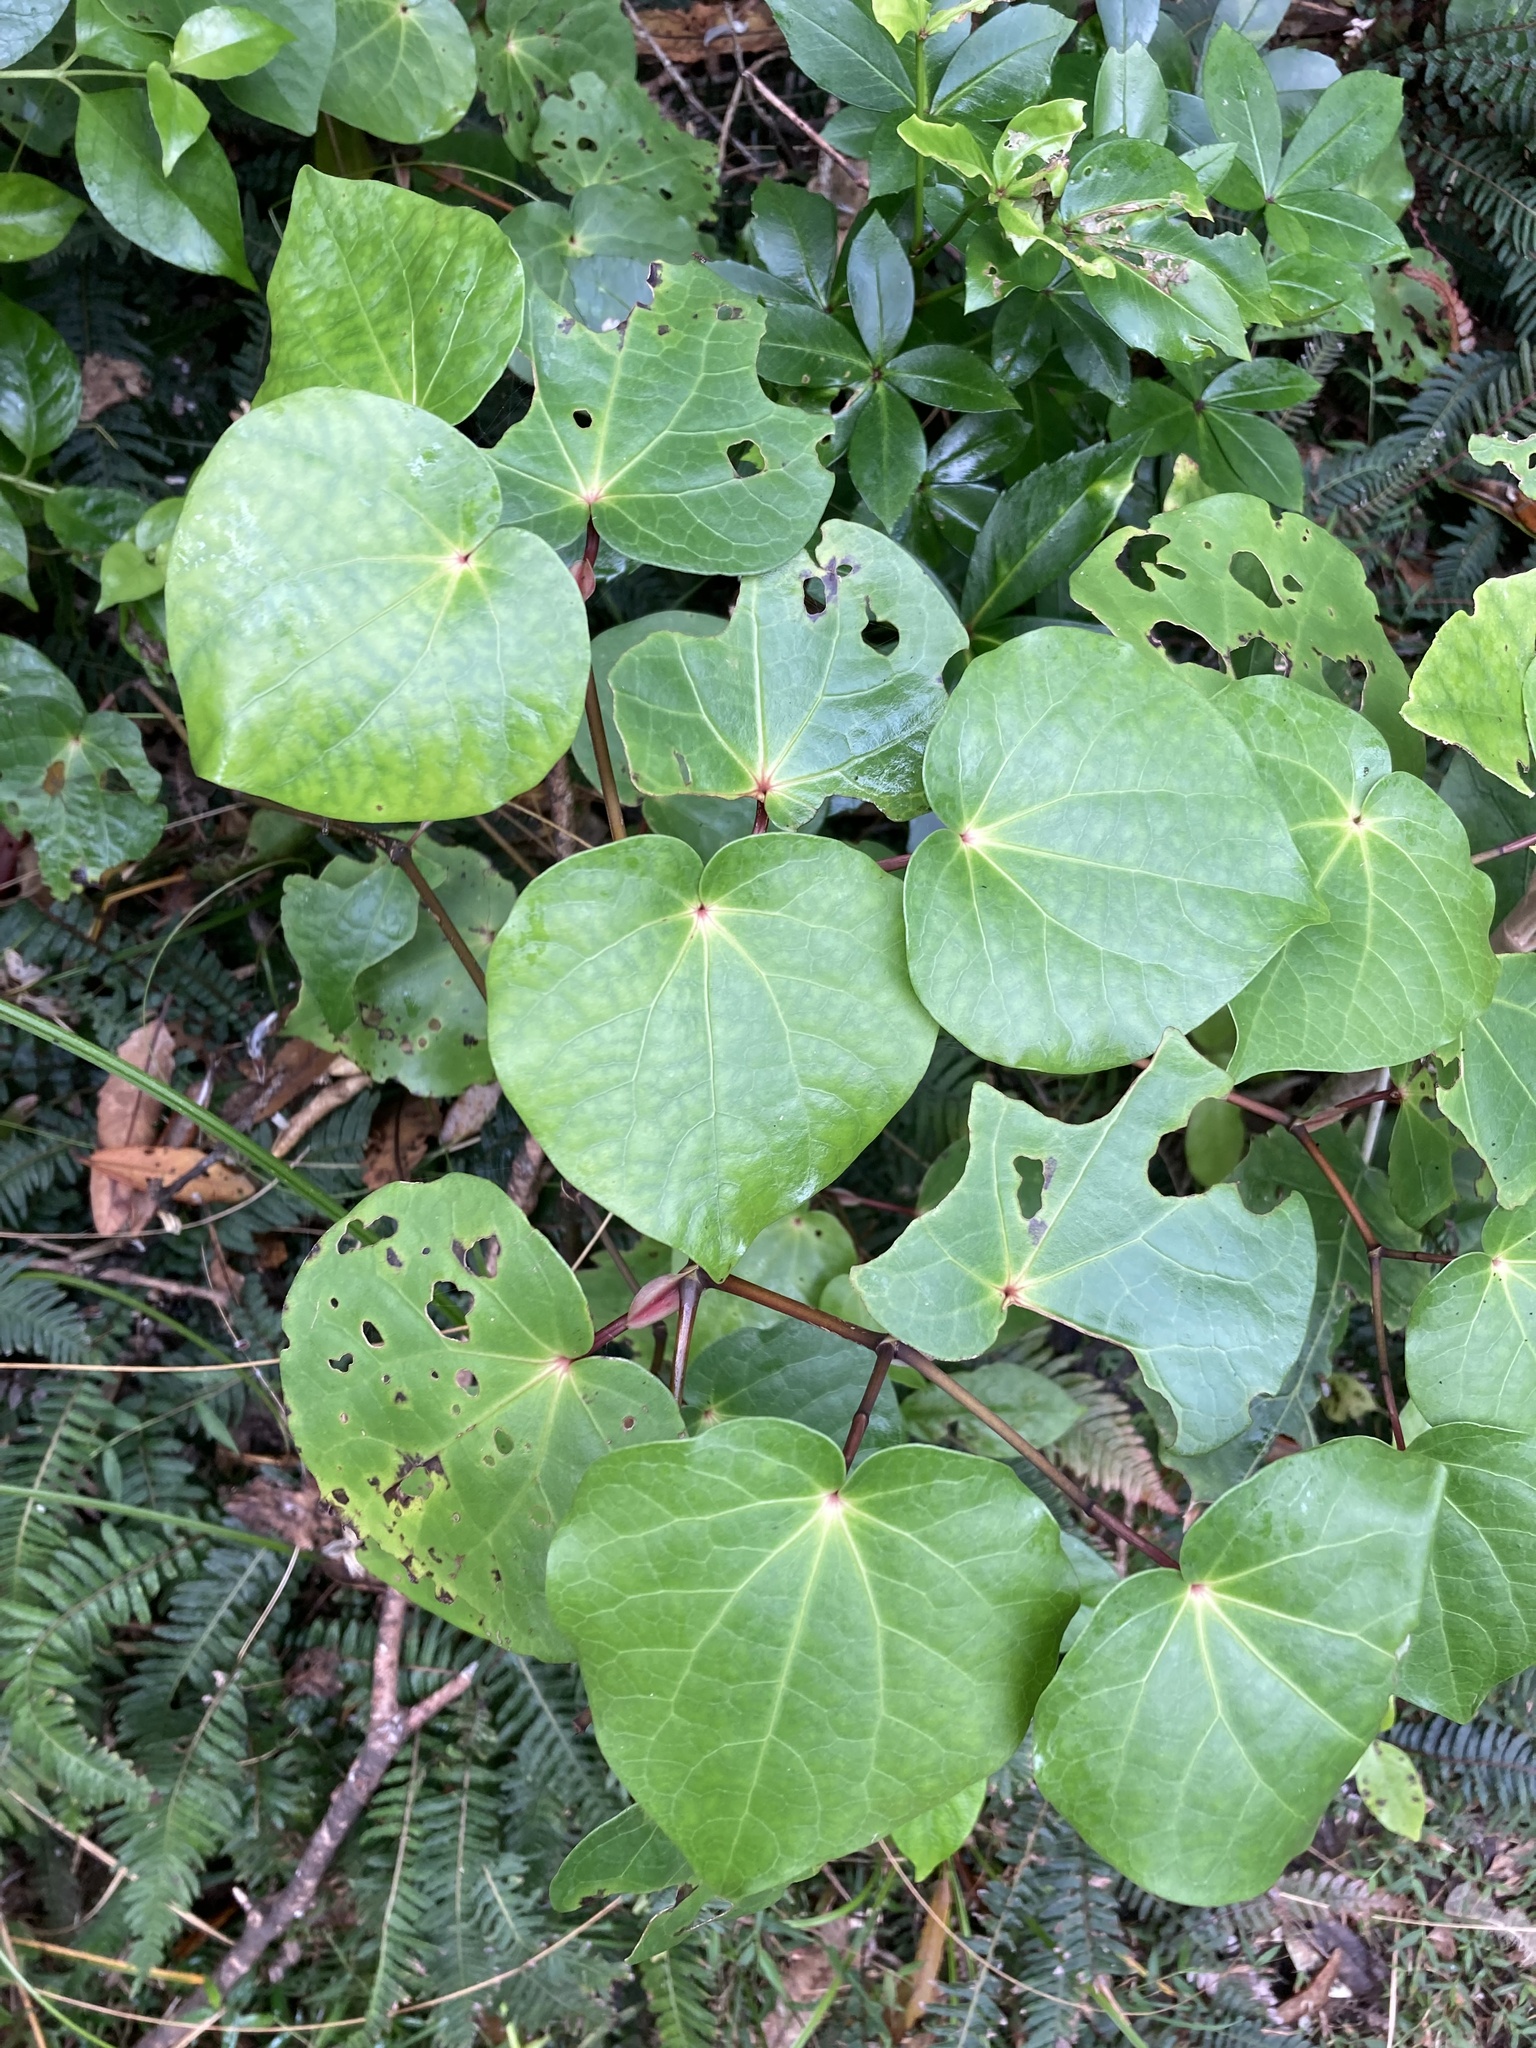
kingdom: Plantae
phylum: Tracheophyta
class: Magnoliopsida
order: Piperales
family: Piperaceae
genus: Macropiper
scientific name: Macropiper excelsum
